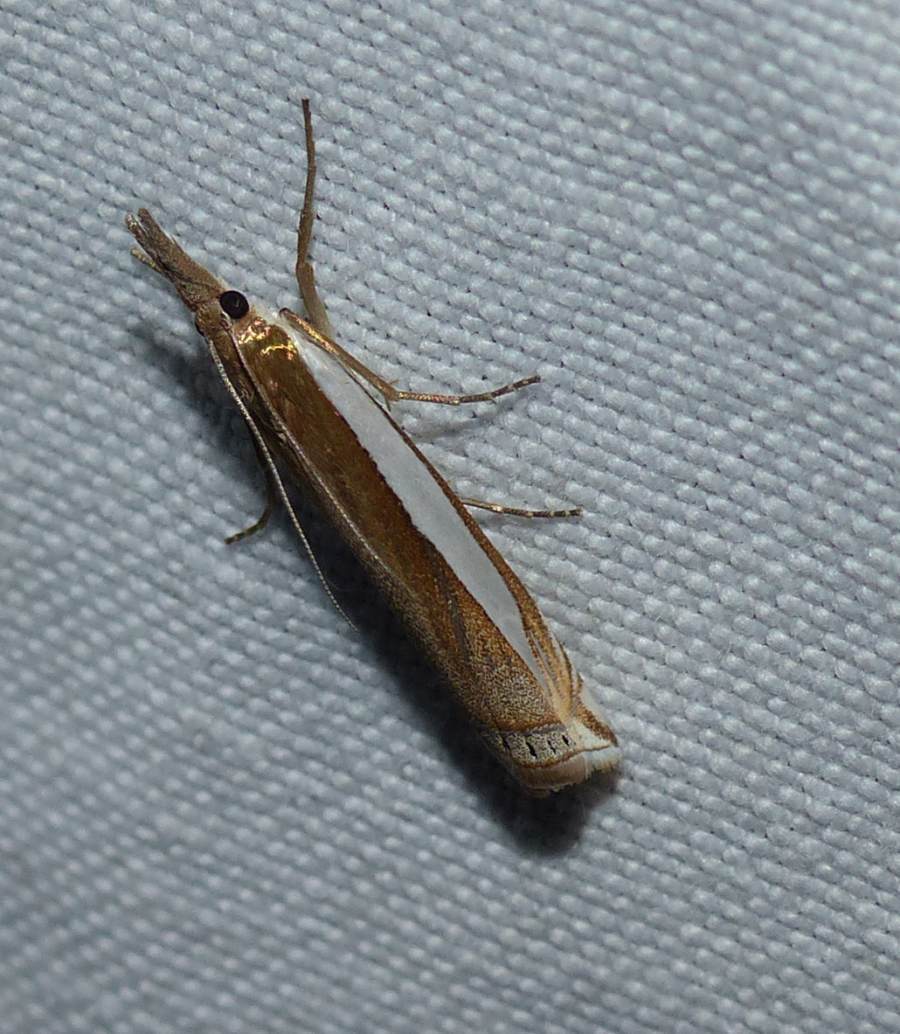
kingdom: Animalia
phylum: Arthropoda
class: Insecta
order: Lepidoptera
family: Crambidae
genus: Crambus
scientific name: Crambus leachellus
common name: Leach's grass-veneer
